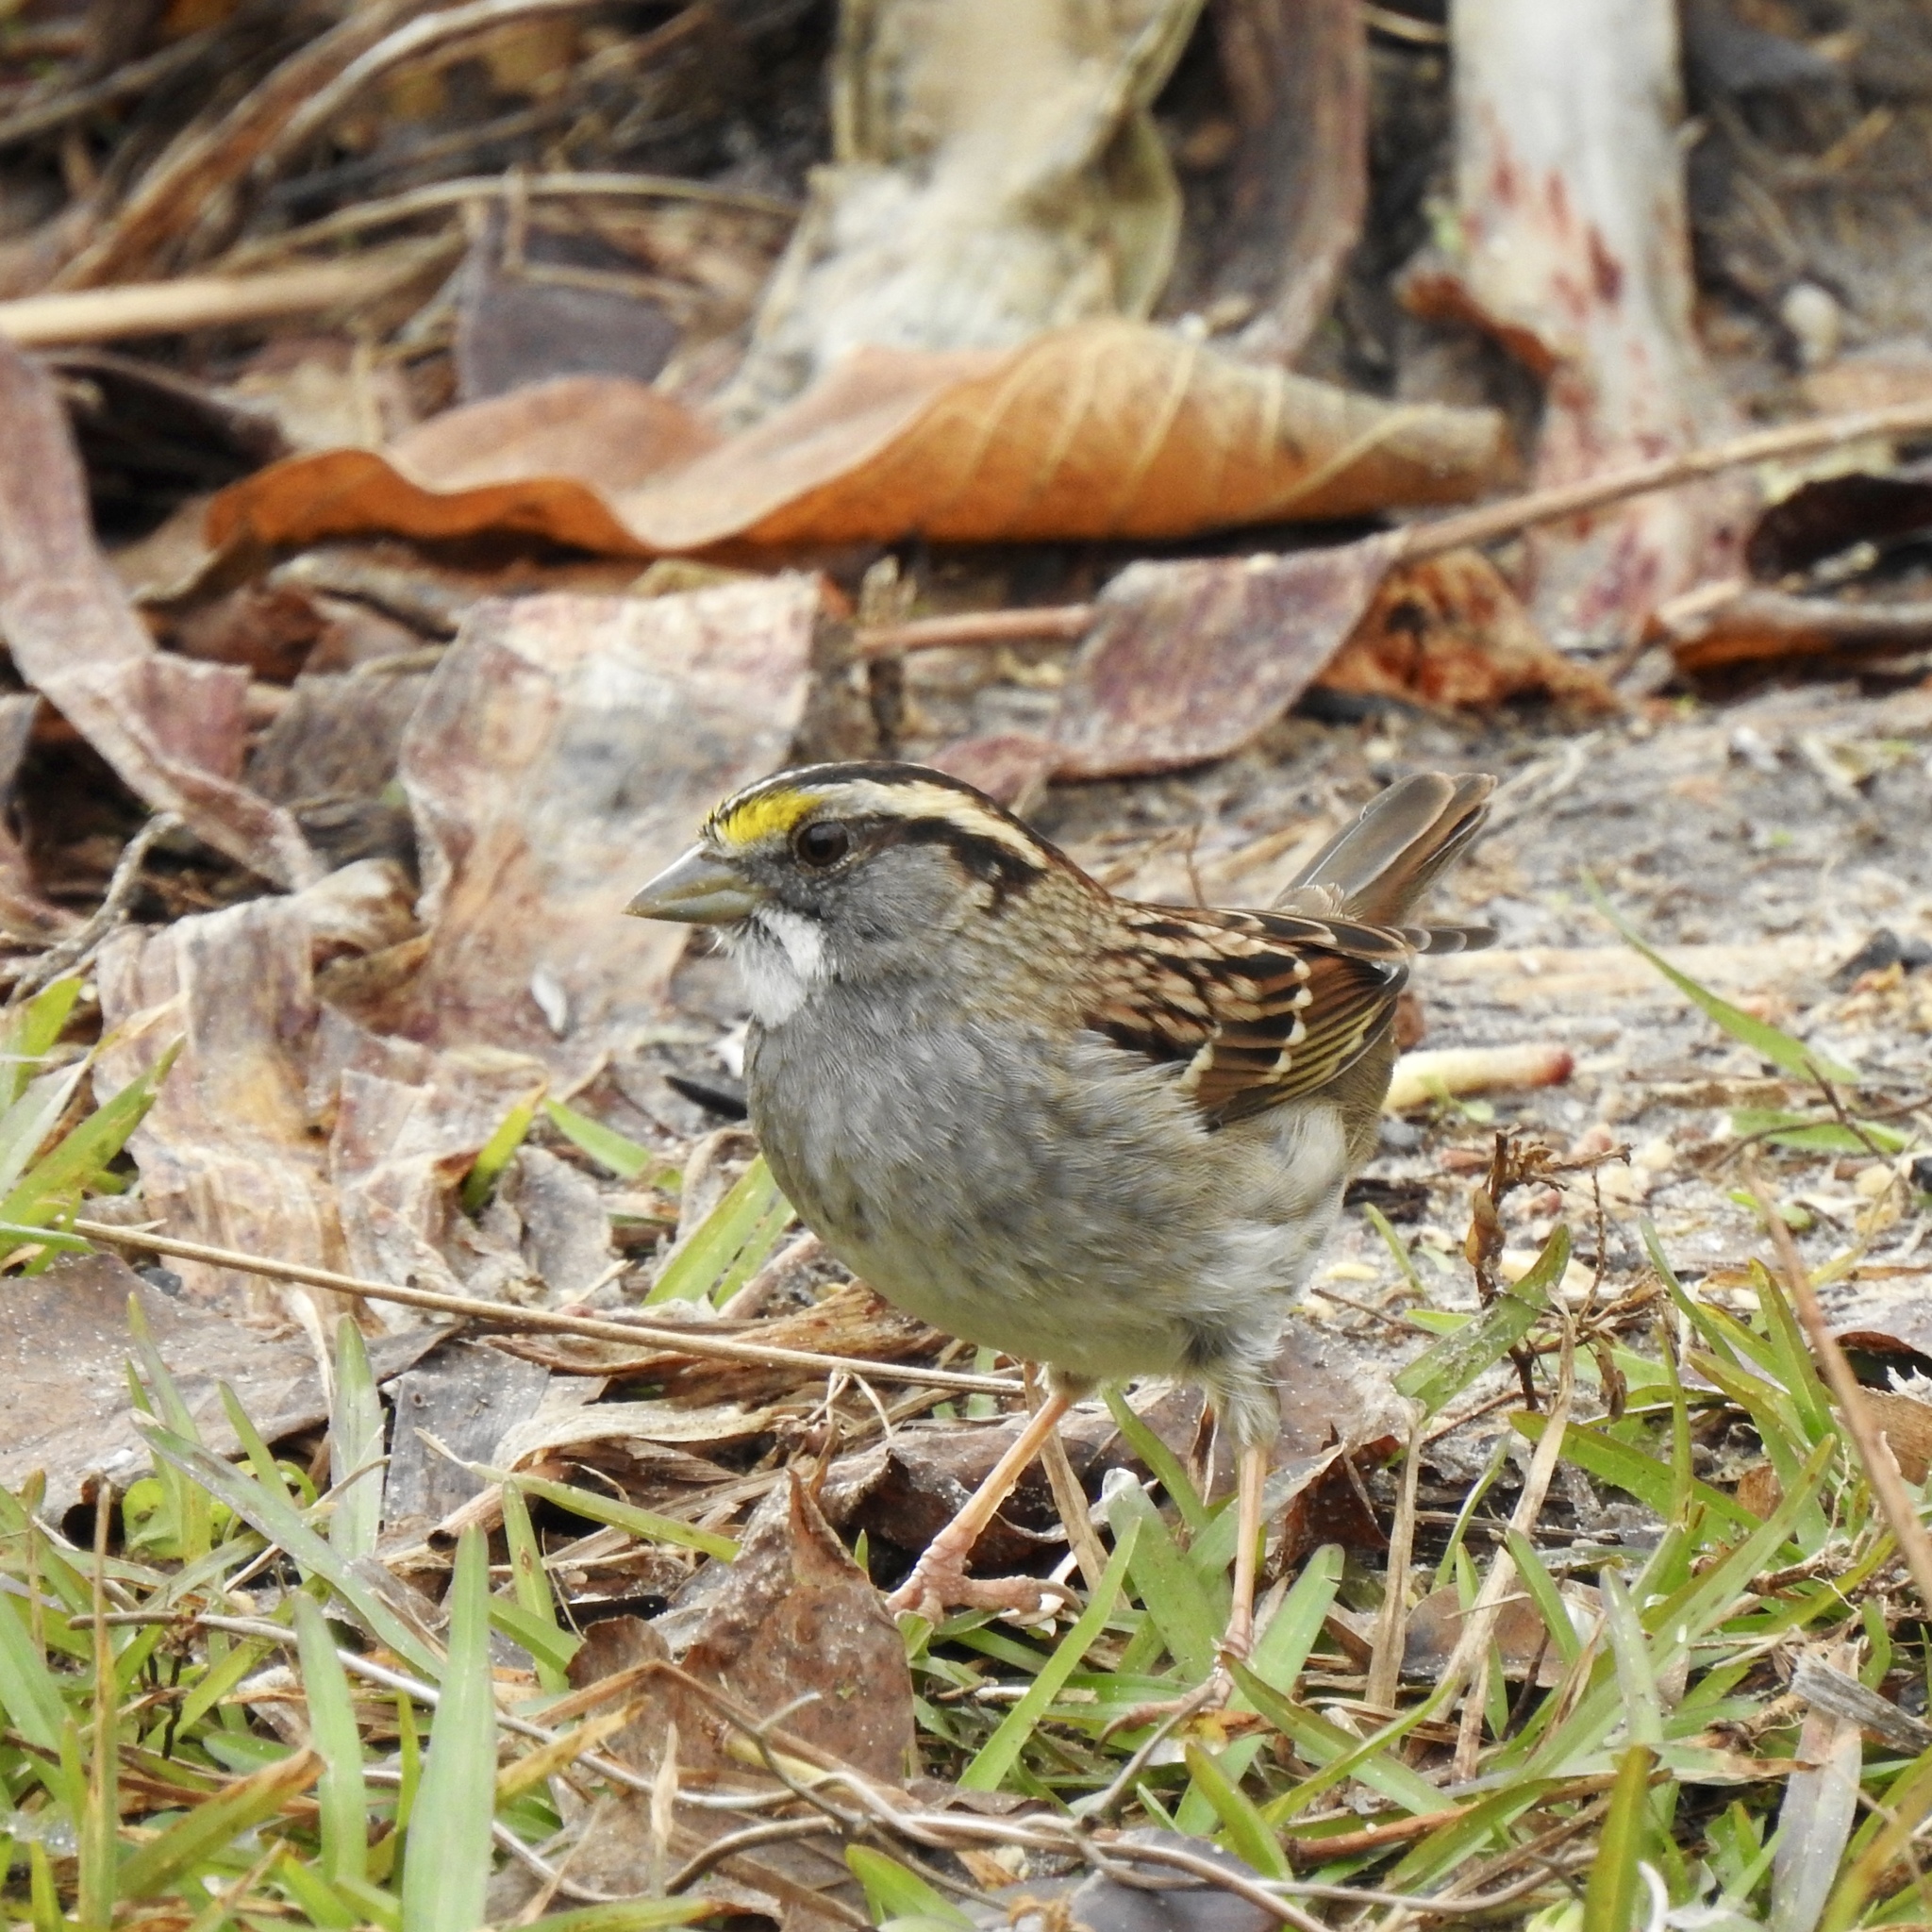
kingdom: Animalia
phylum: Chordata
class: Aves
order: Passeriformes
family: Passerellidae
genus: Zonotrichia
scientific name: Zonotrichia albicollis
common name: White-throated sparrow
